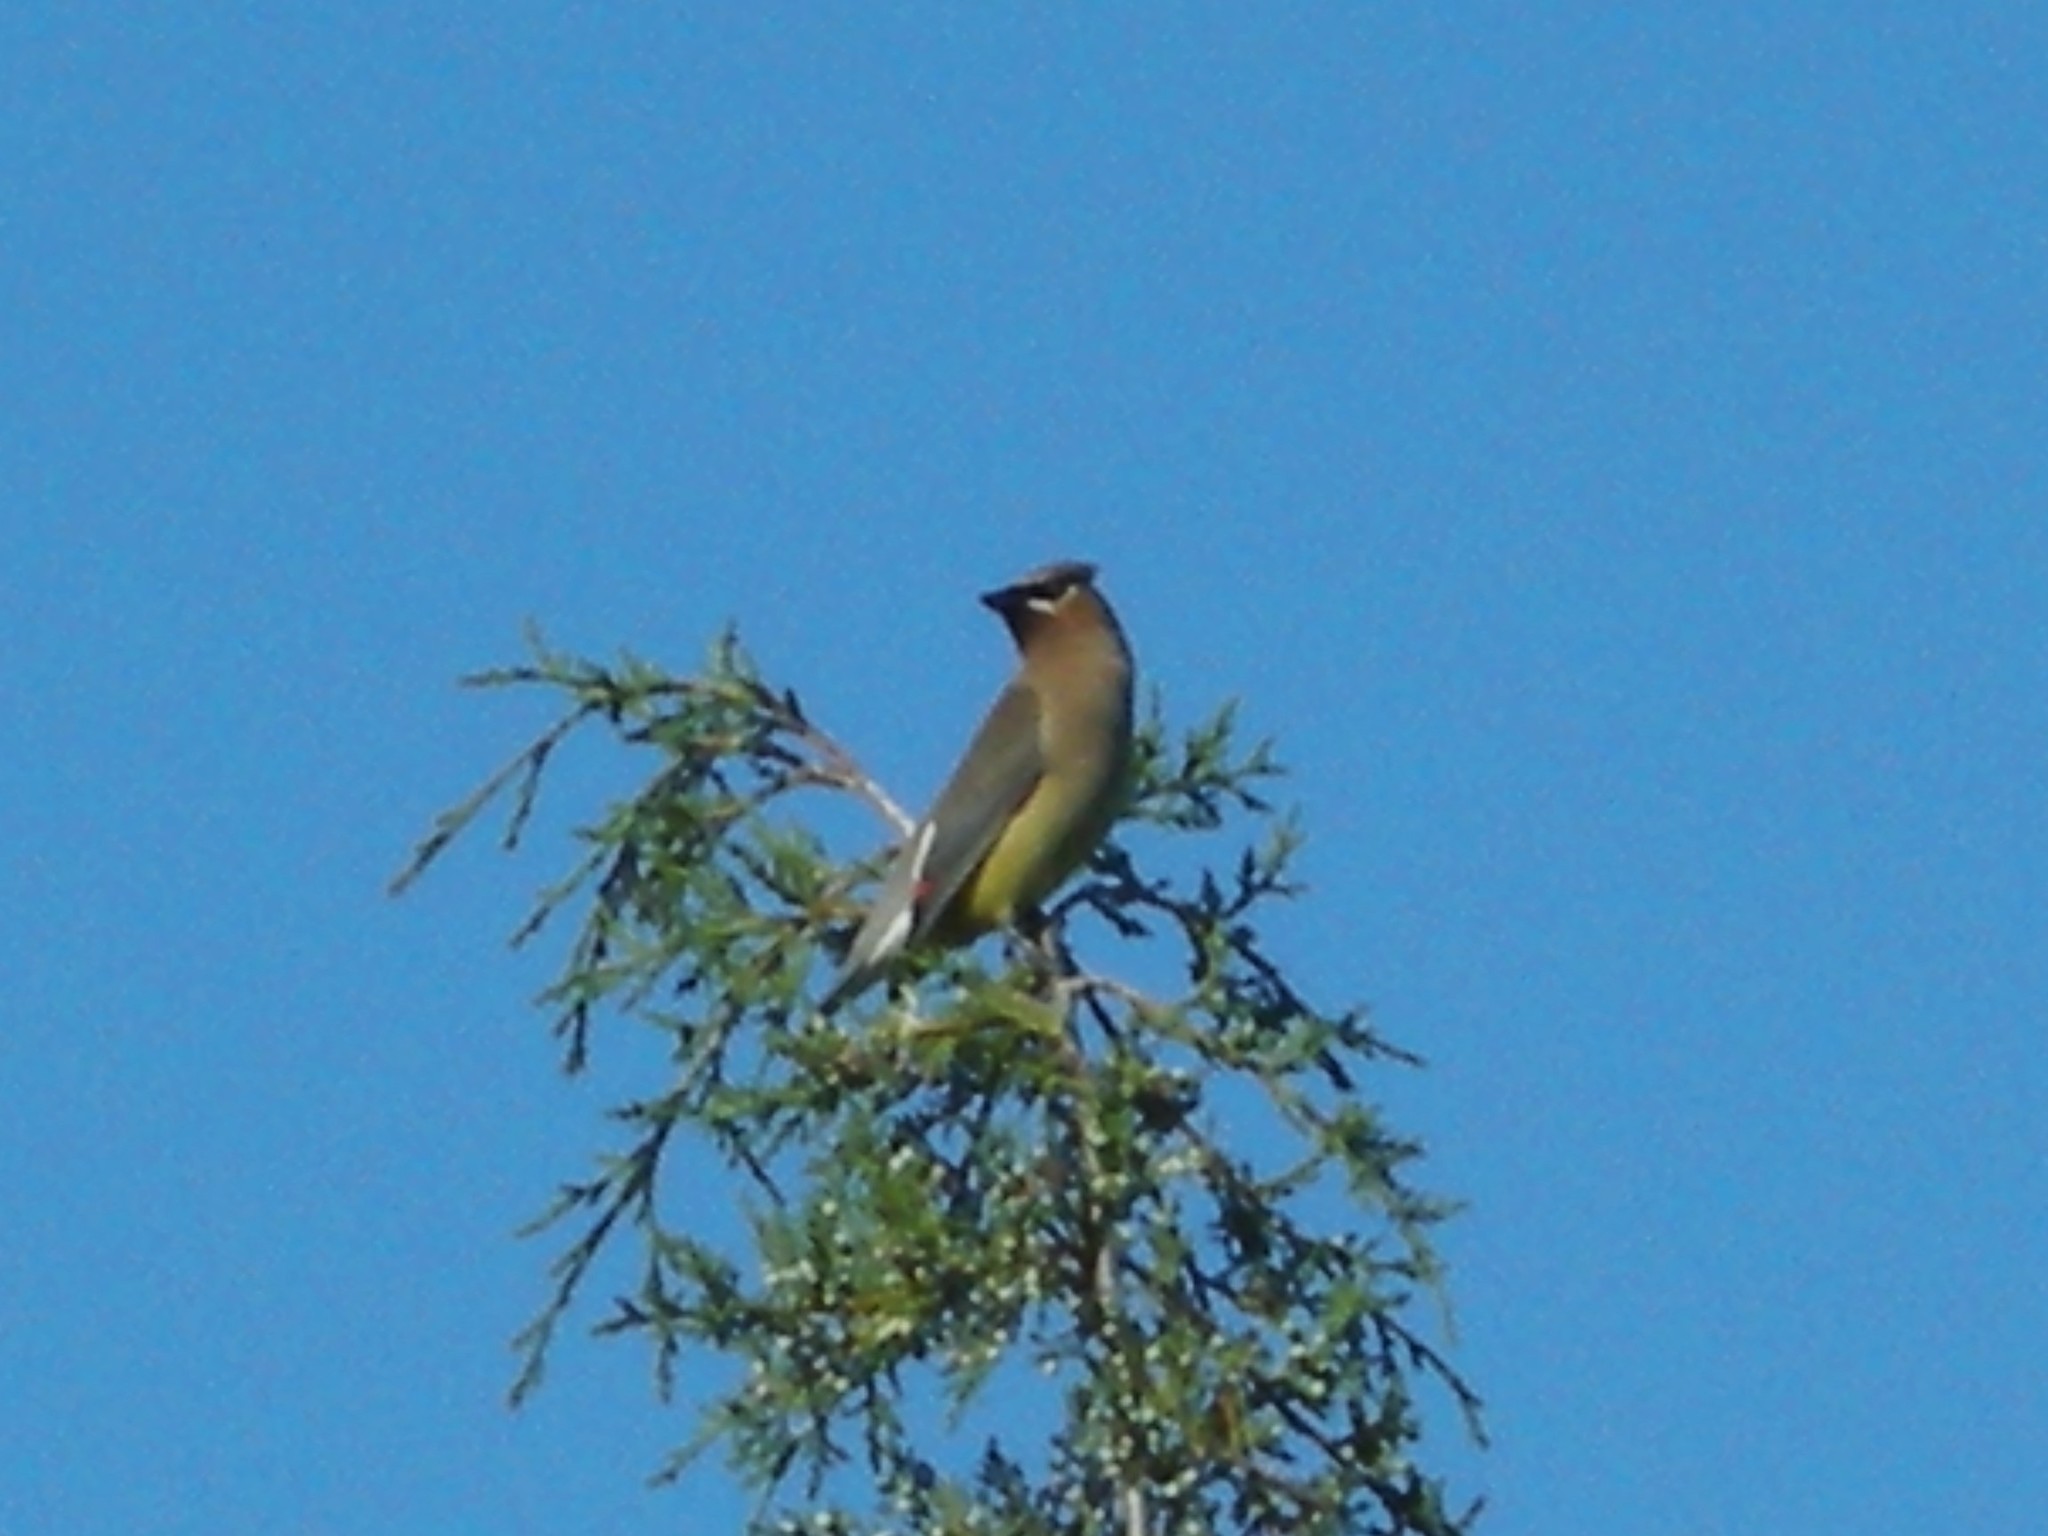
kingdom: Animalia
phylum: Chordata
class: Aves
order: Passeriformes
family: Bombycillidae
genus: Bombycilla
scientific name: Bombycilla cedrorum
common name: Cedar waxwing
